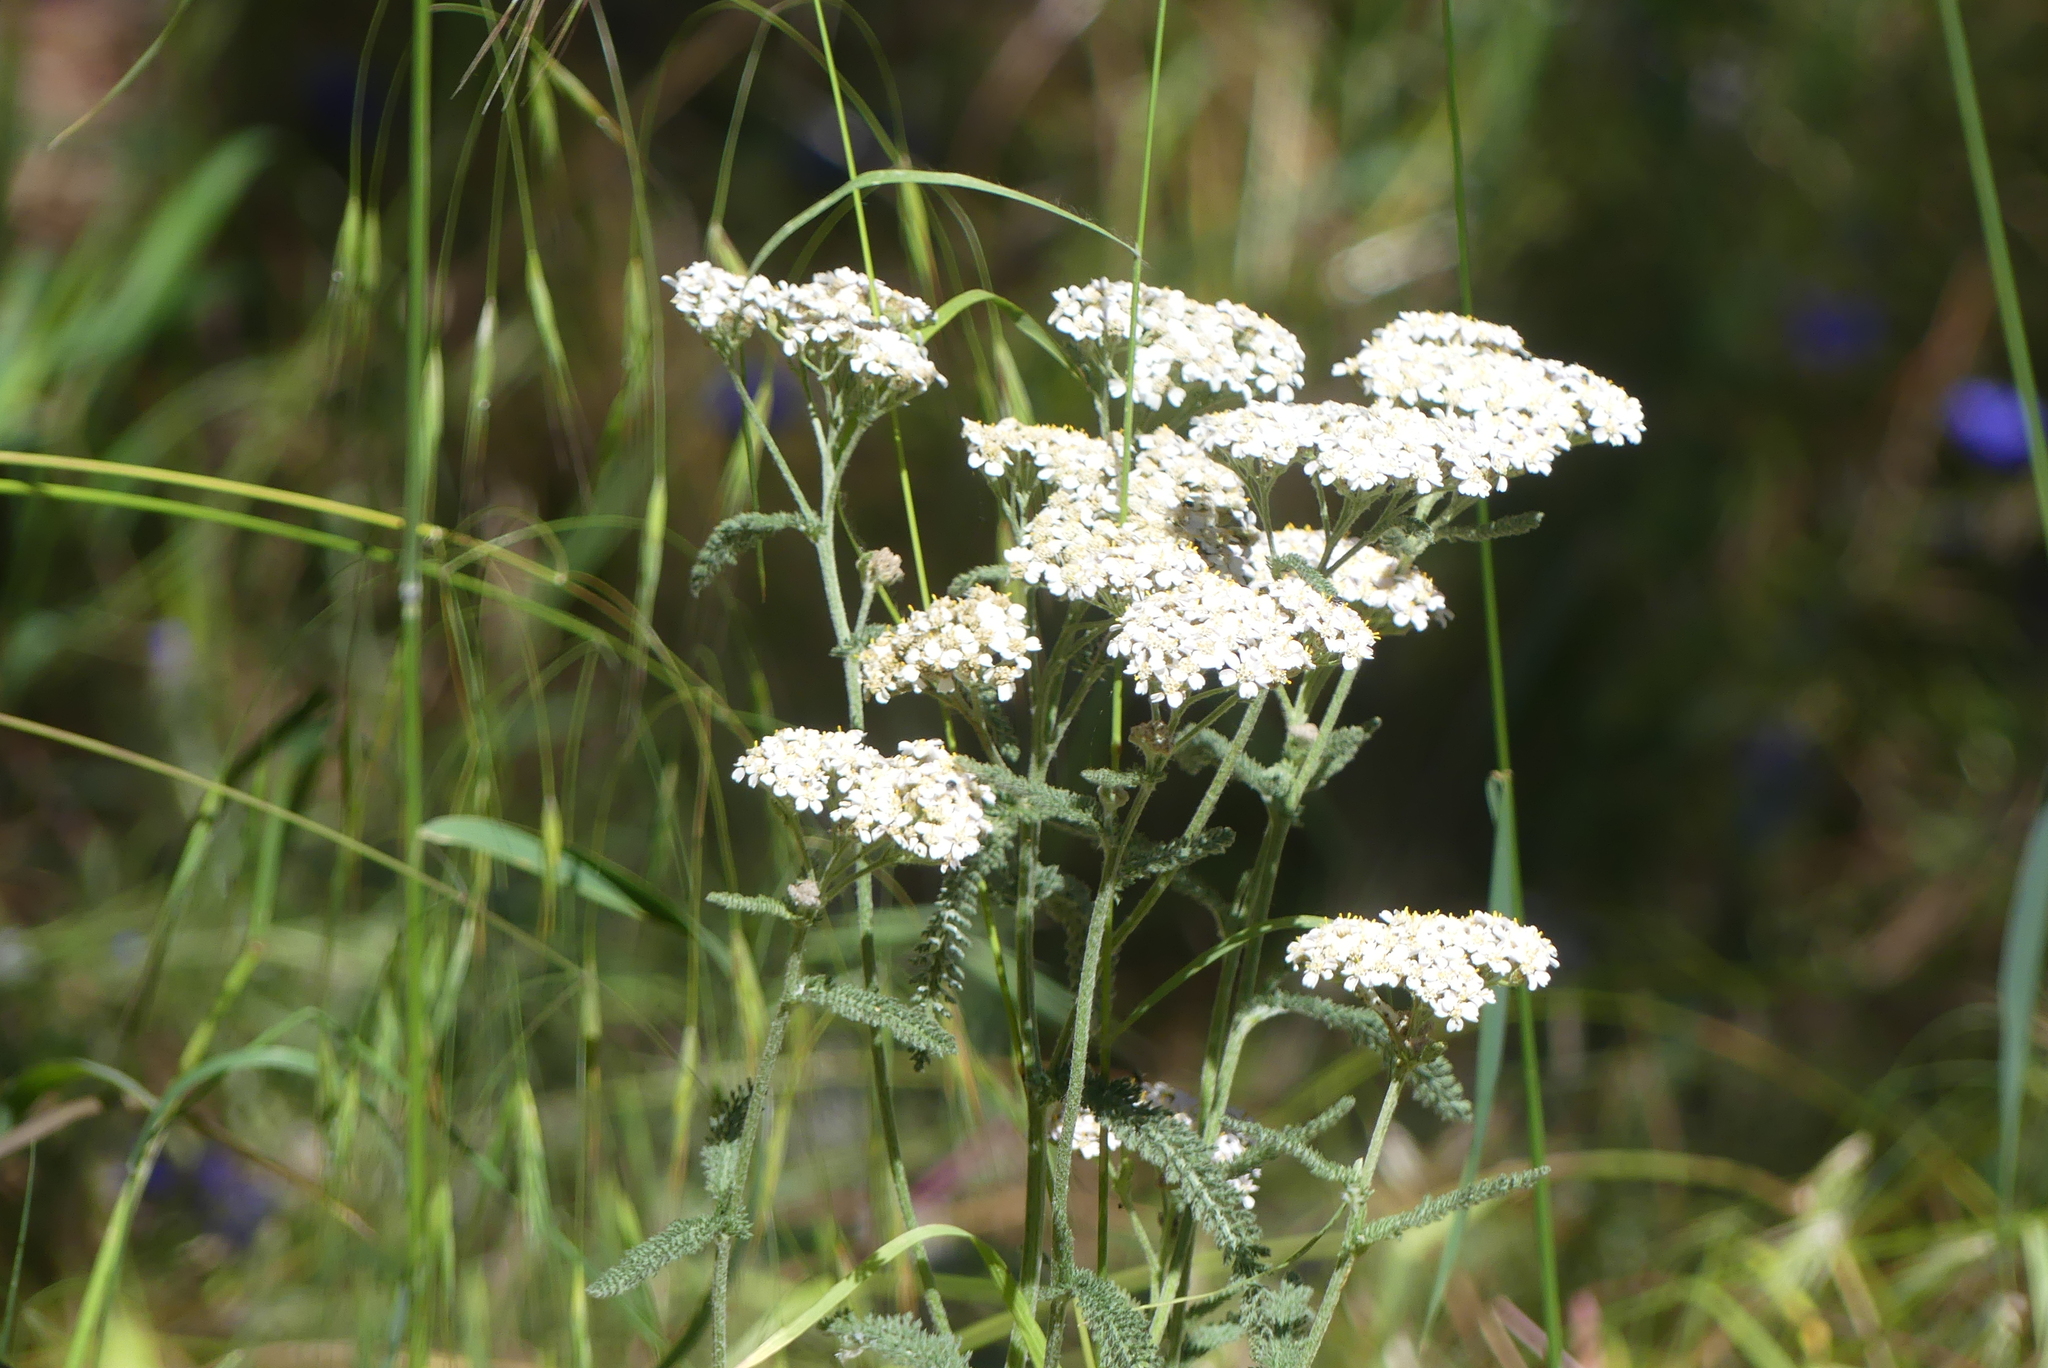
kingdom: Plantae
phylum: Tracheophyta
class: Magnoliopsida
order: Asterales
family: Asteraceae
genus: Achillea
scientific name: Achillea millefolium
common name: Yarrow
